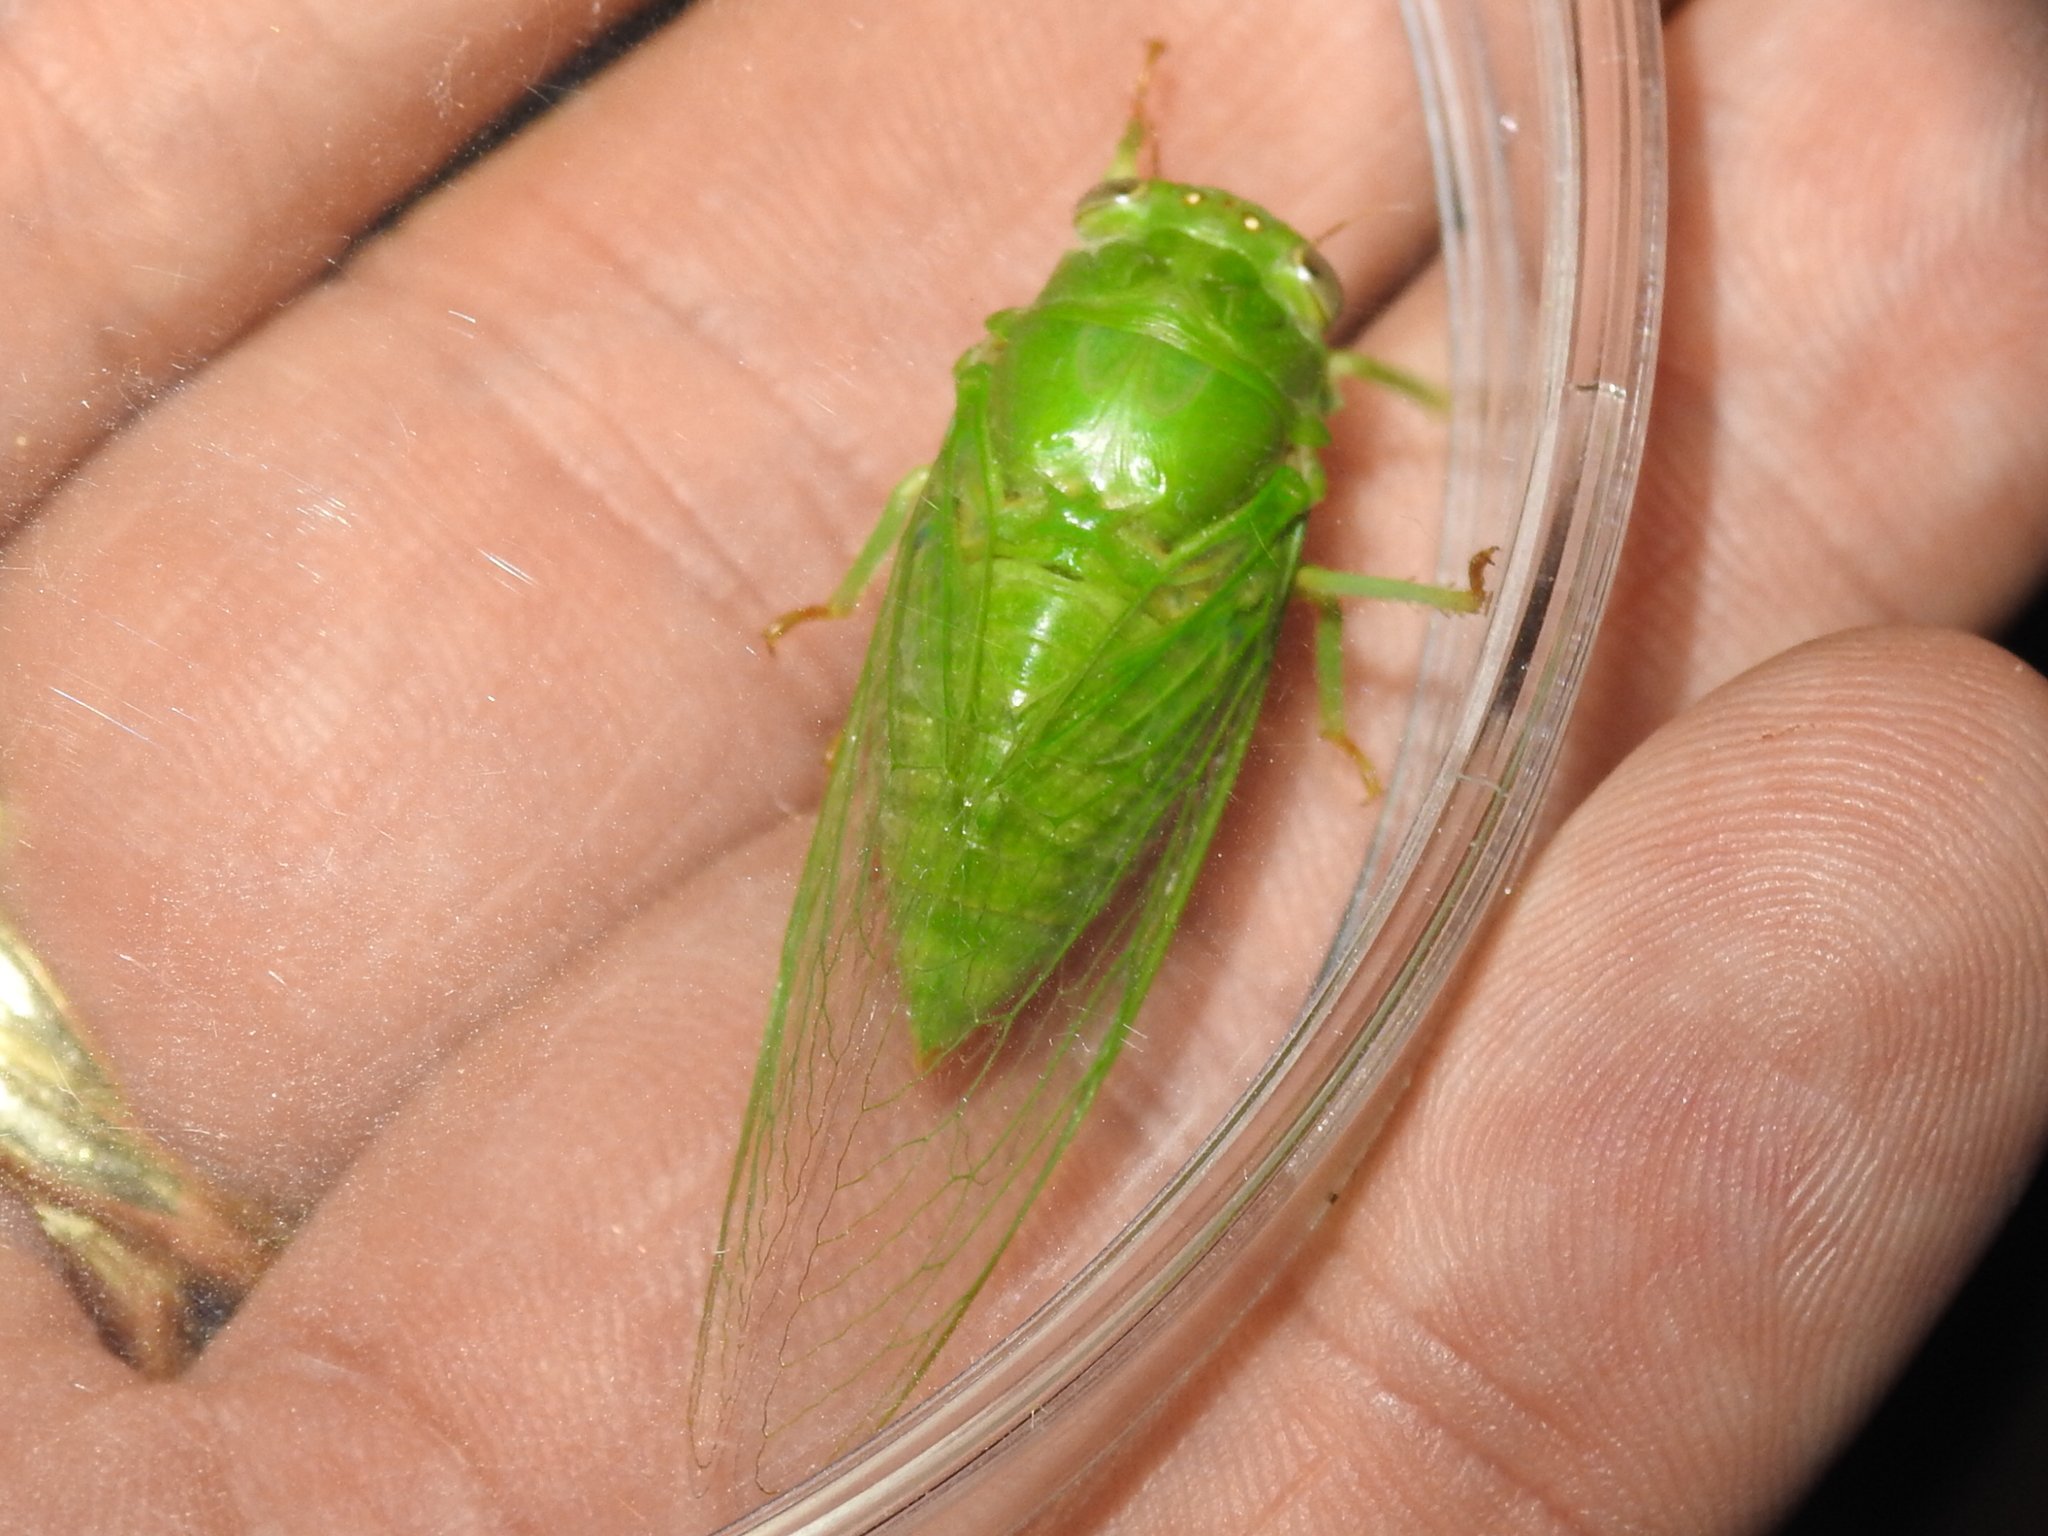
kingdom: Animalia
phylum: Arthropoda
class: Insecta
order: Hemiptera
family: Cicadidae
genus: Glaucopsaltria
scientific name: Glaucopsaltria viridis
